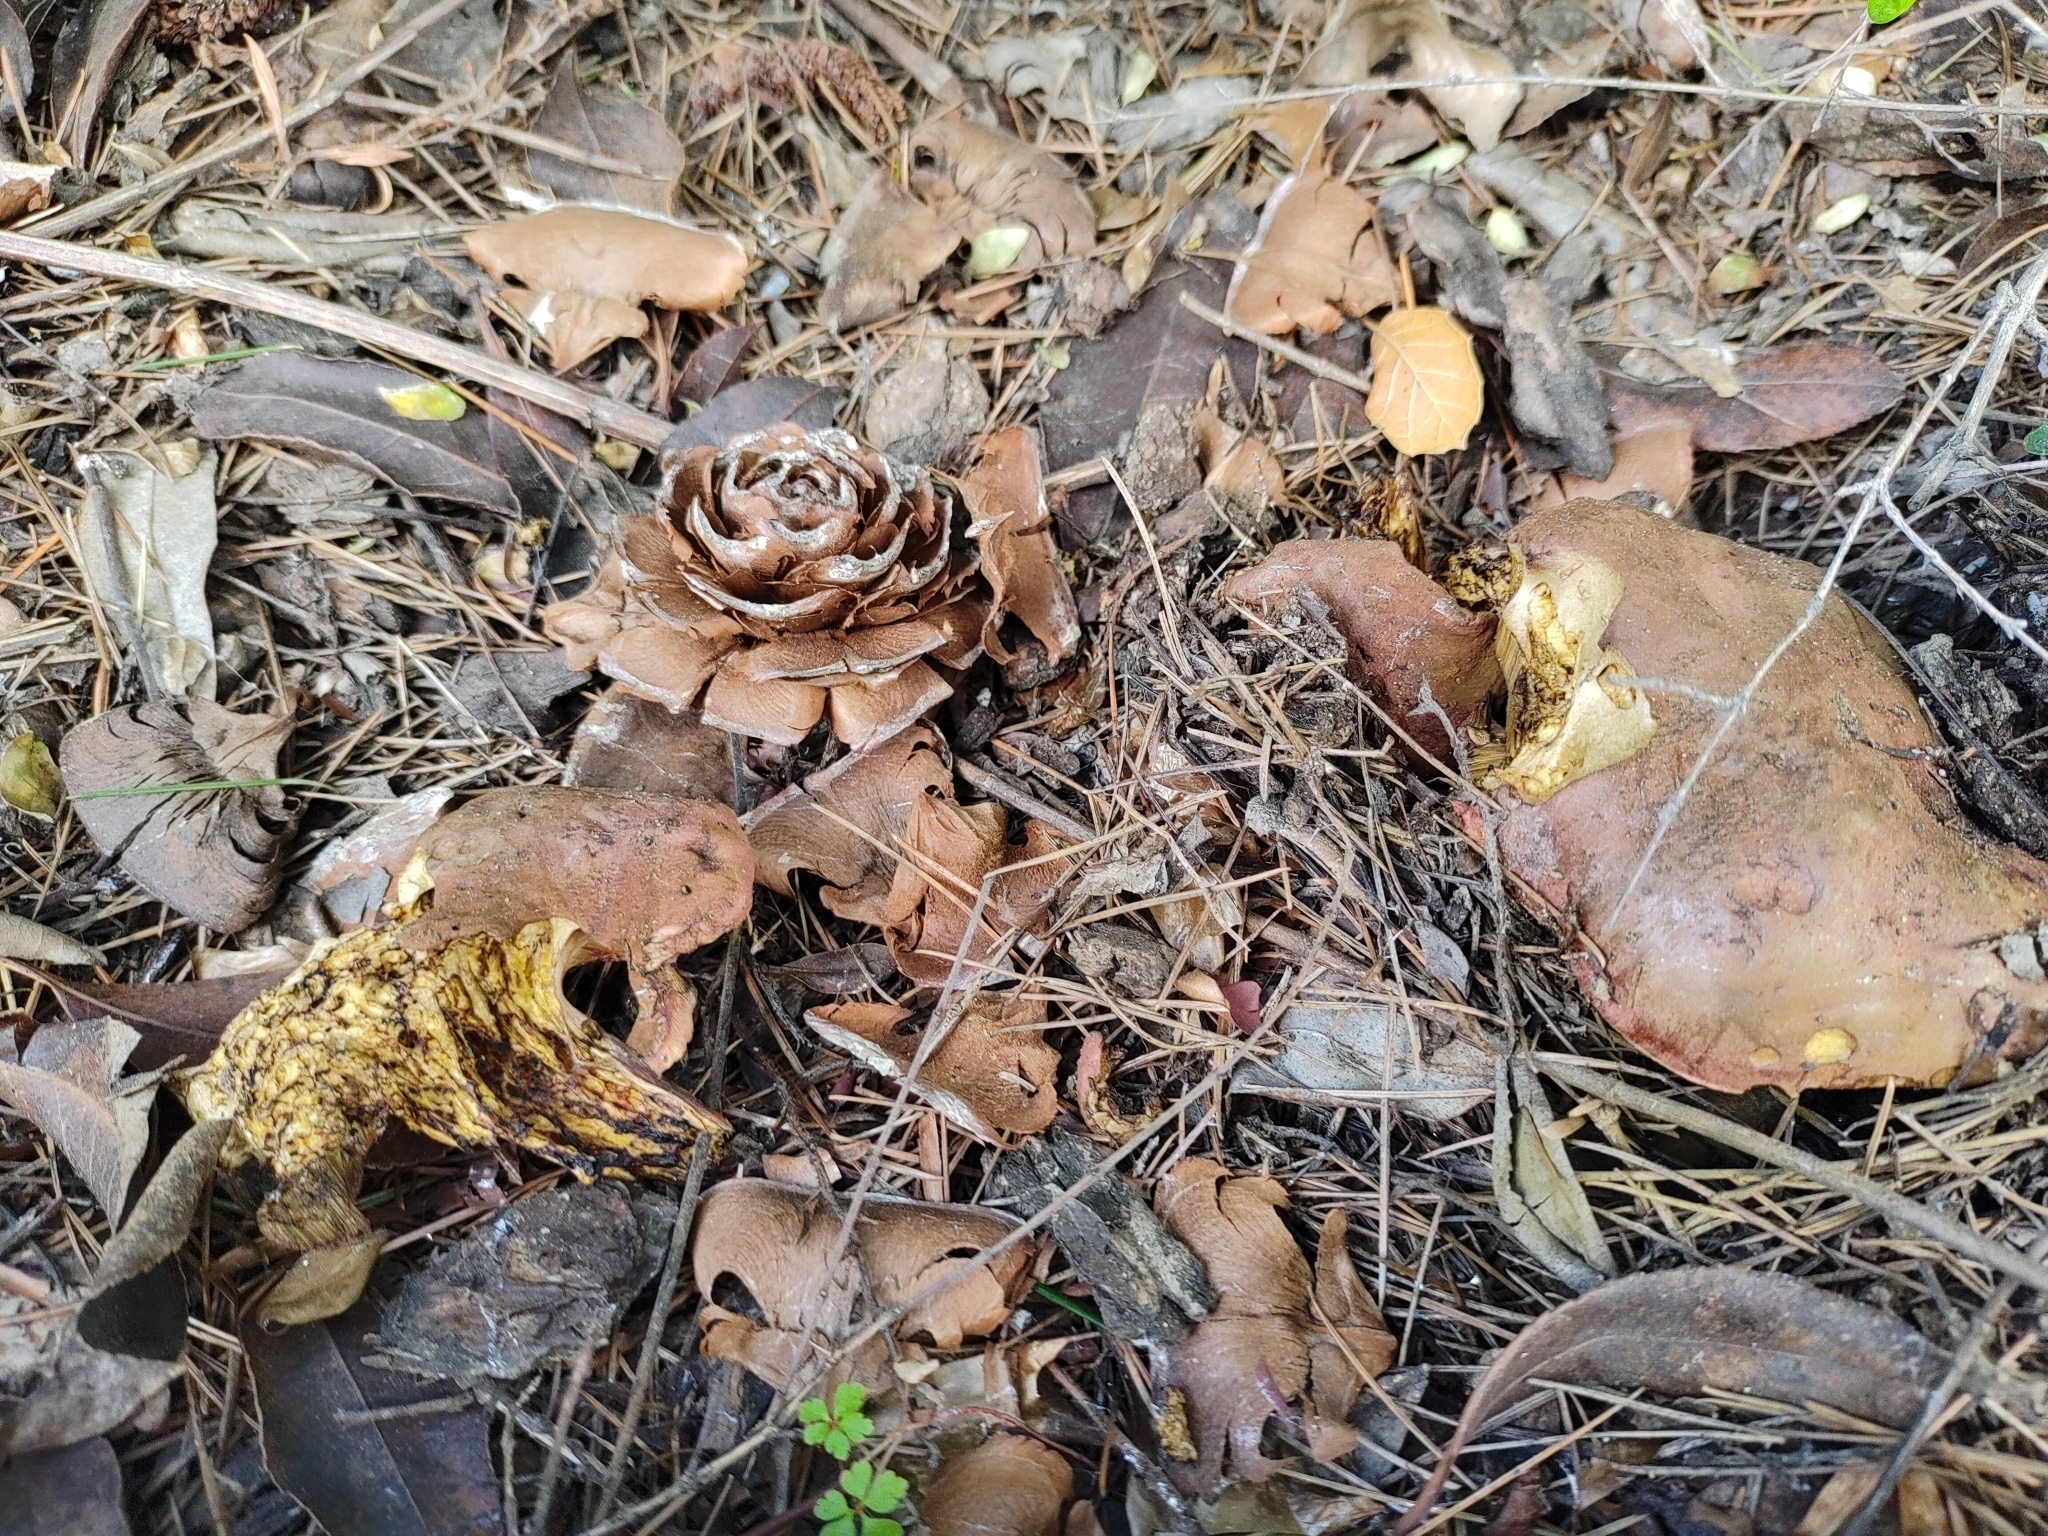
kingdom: Fungi
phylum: Basidiomycota
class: Agaricomycetes
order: Boletales
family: Boletaceae
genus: Suillellus
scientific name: Suillellus amygdalinus
